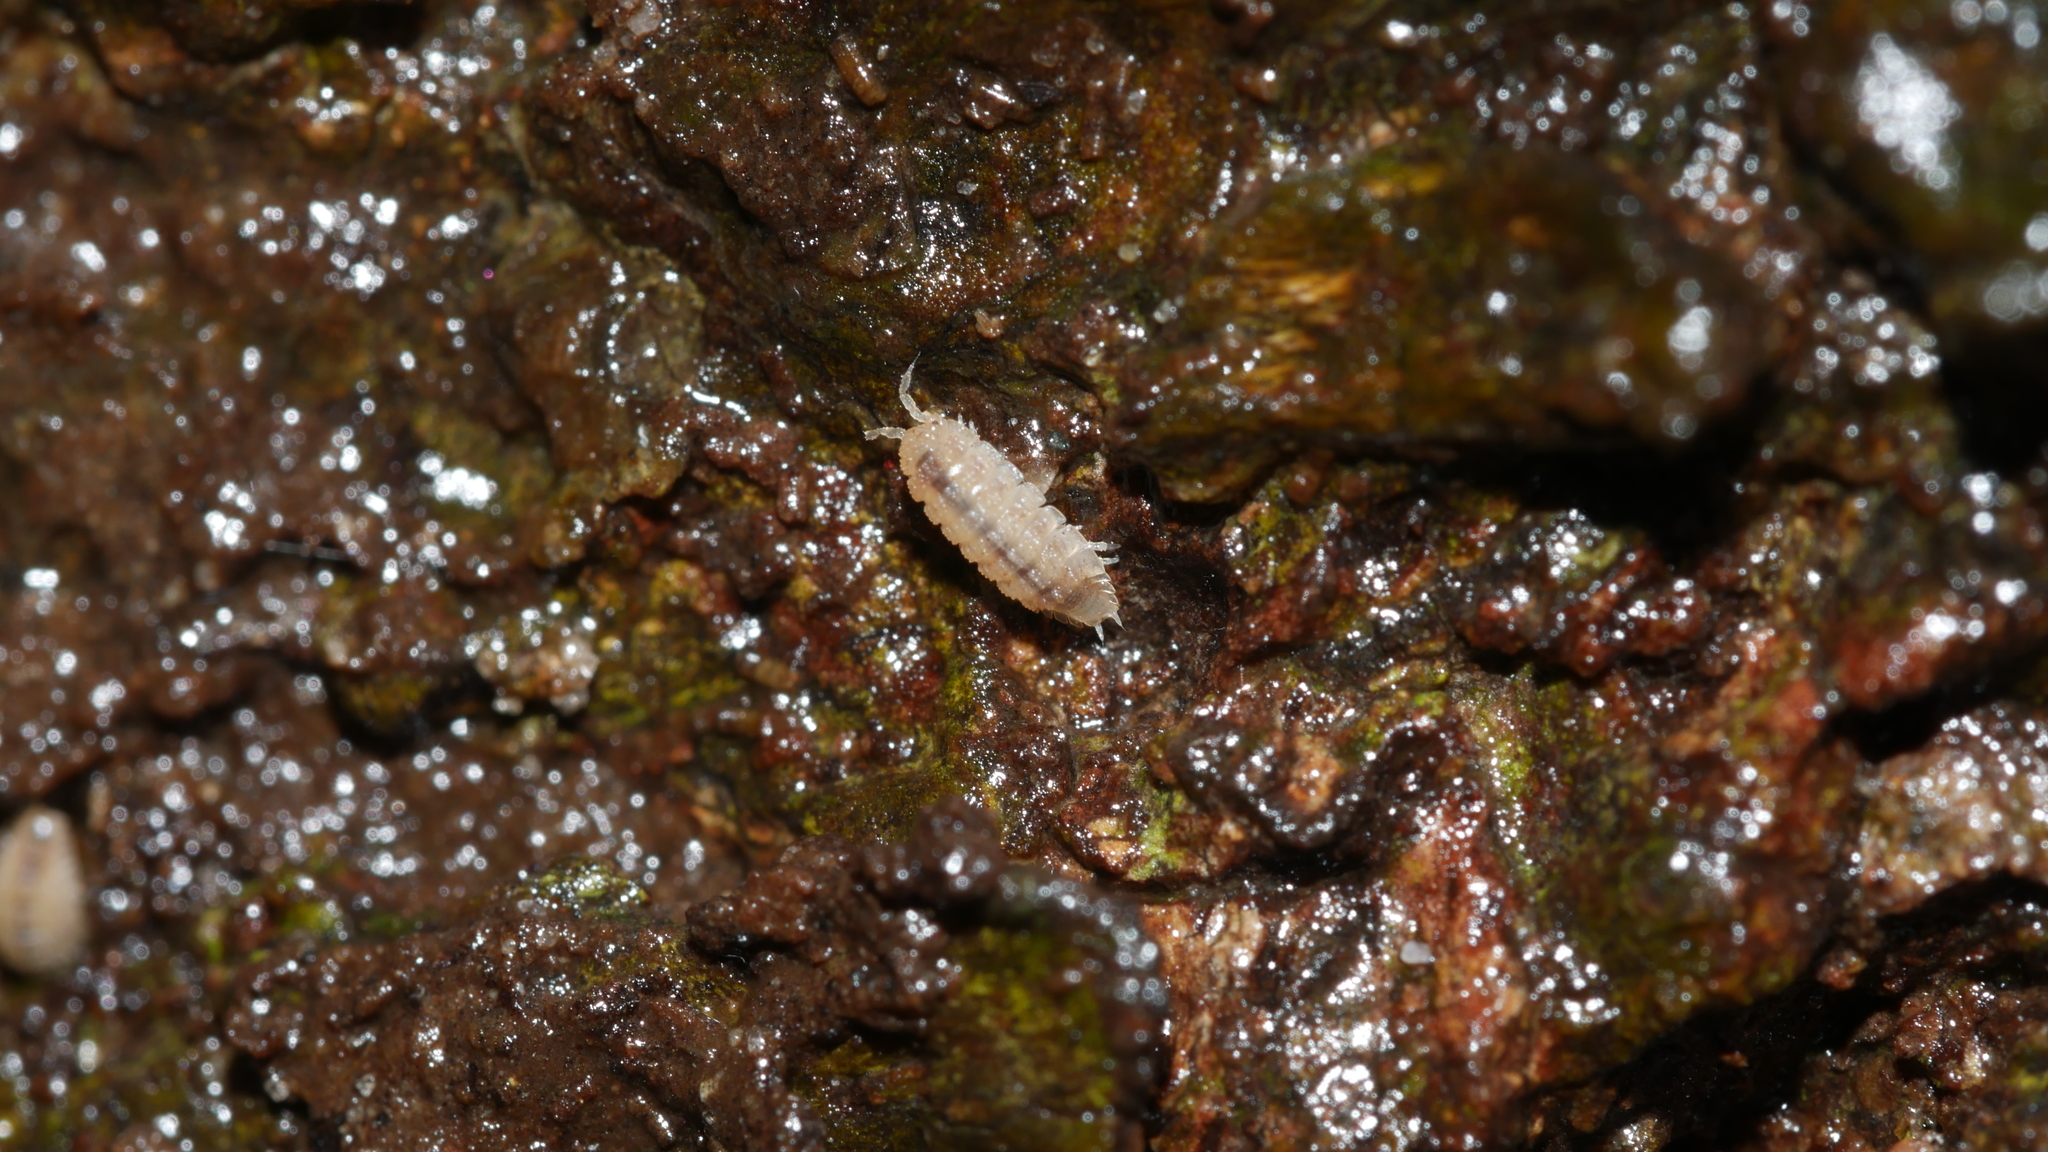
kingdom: Animalia
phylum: Arthropoda
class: Malacostraca
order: Isopoda
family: Trichoniscidae
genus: Haplophthalmus
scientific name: Haplophthalmus danicus
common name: Pillbug
